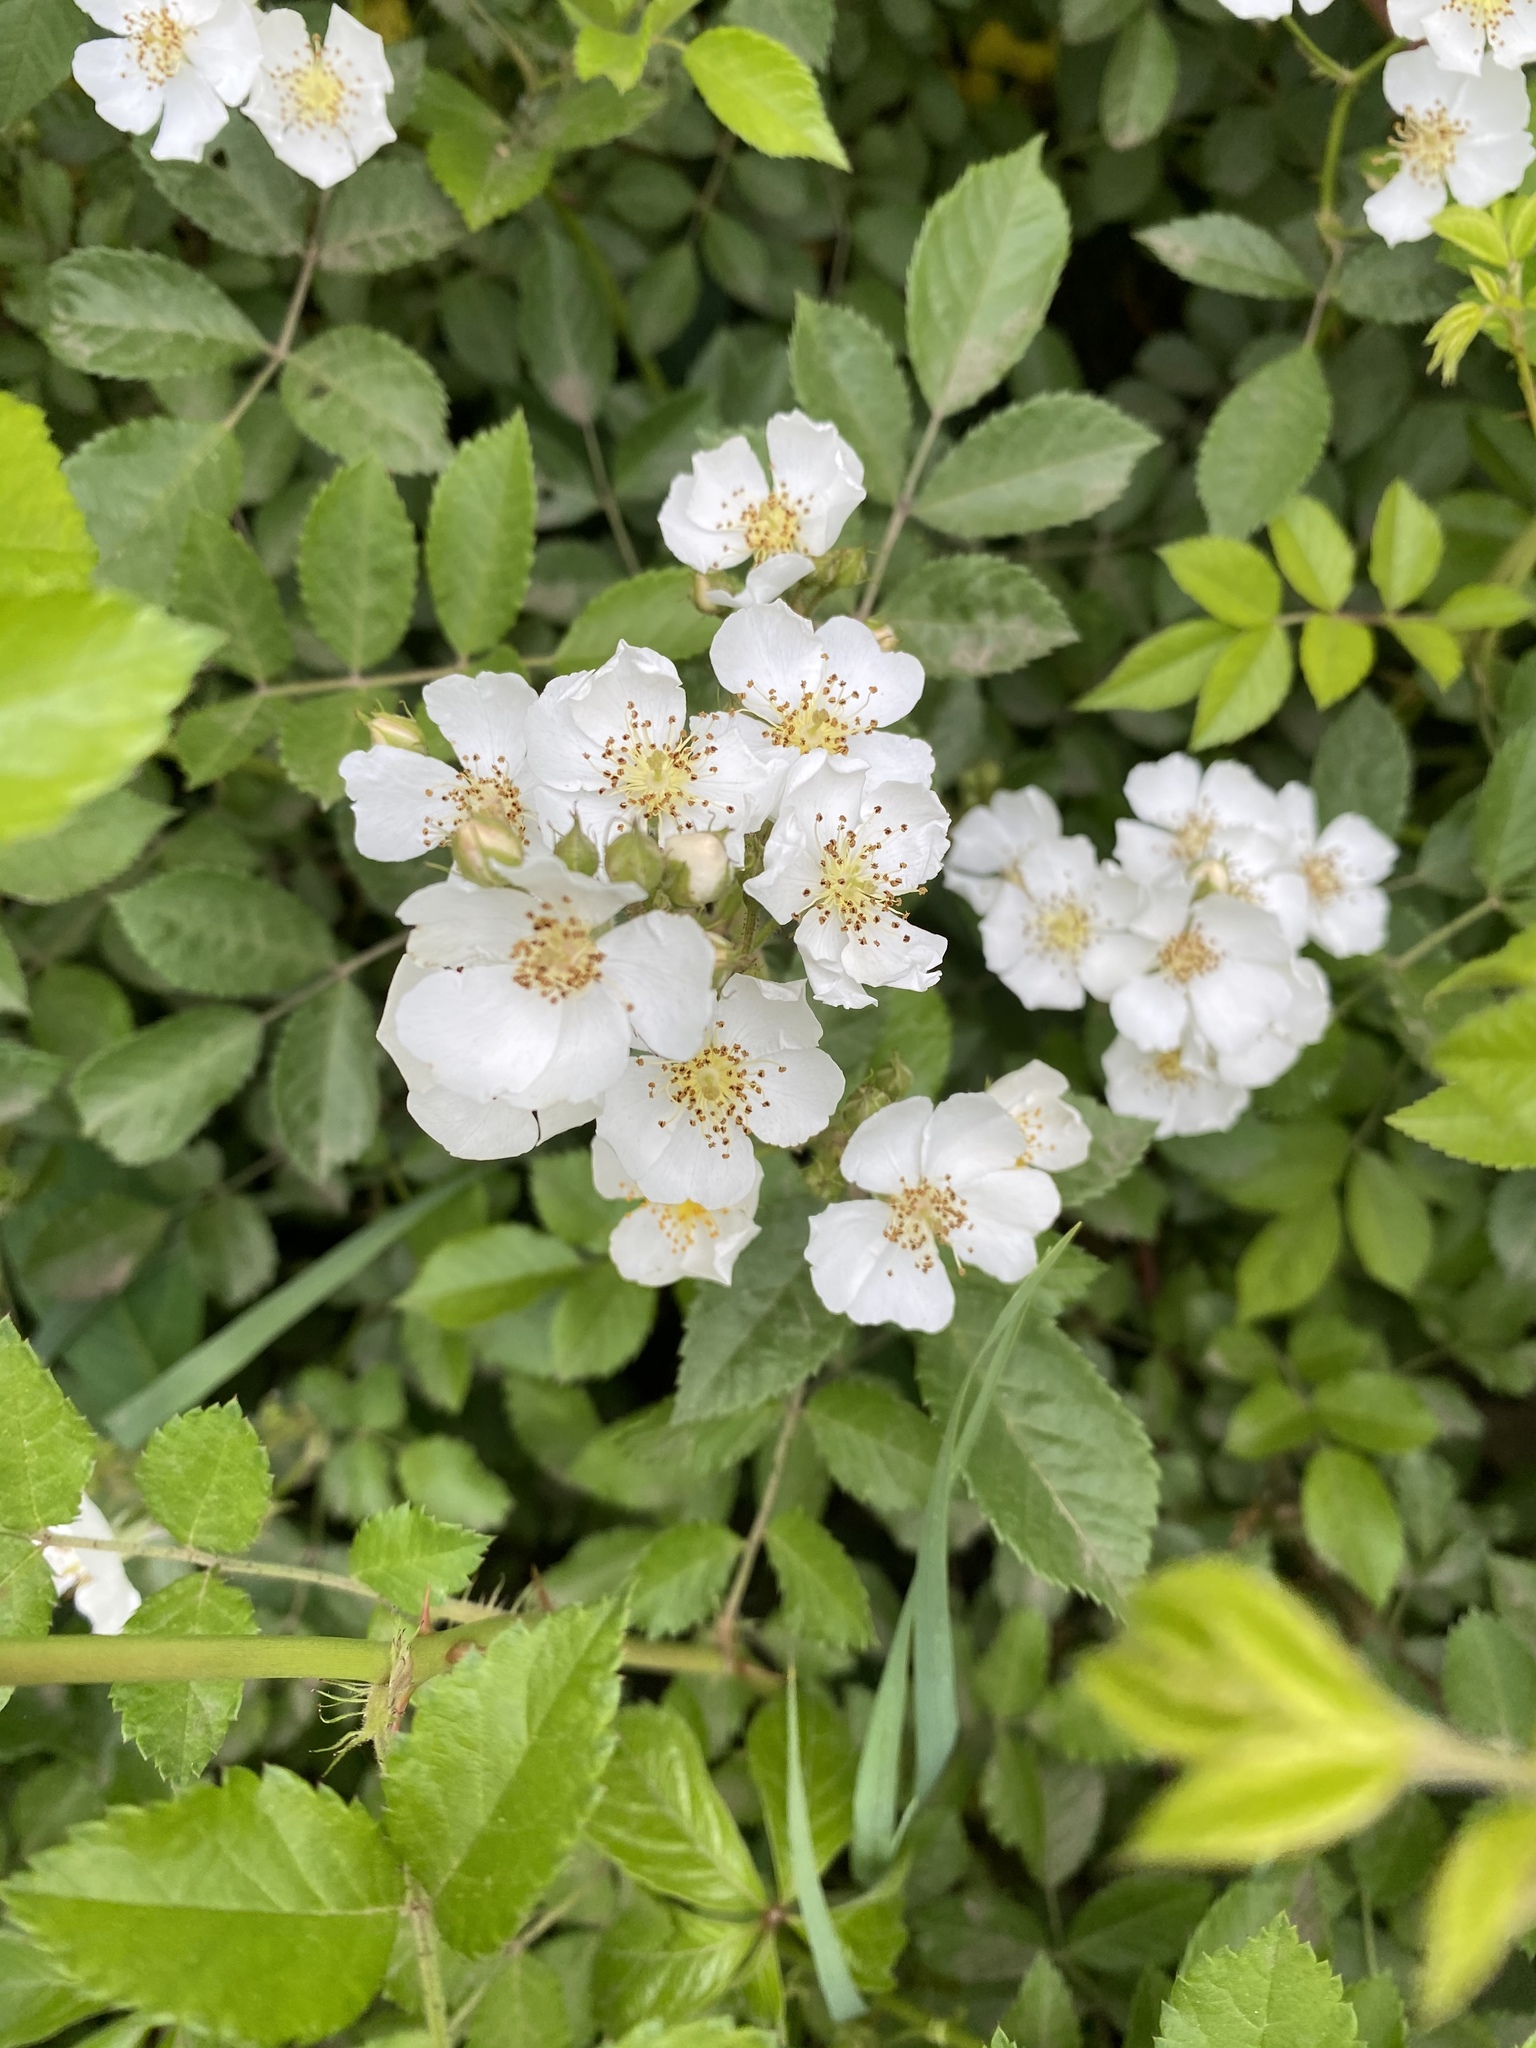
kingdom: Plantae
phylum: Tracheophyta
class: Magnoliopsida
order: Rosales
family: Rosaceae
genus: Rosa
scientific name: Rosa multiflora
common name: Multiflora rose
